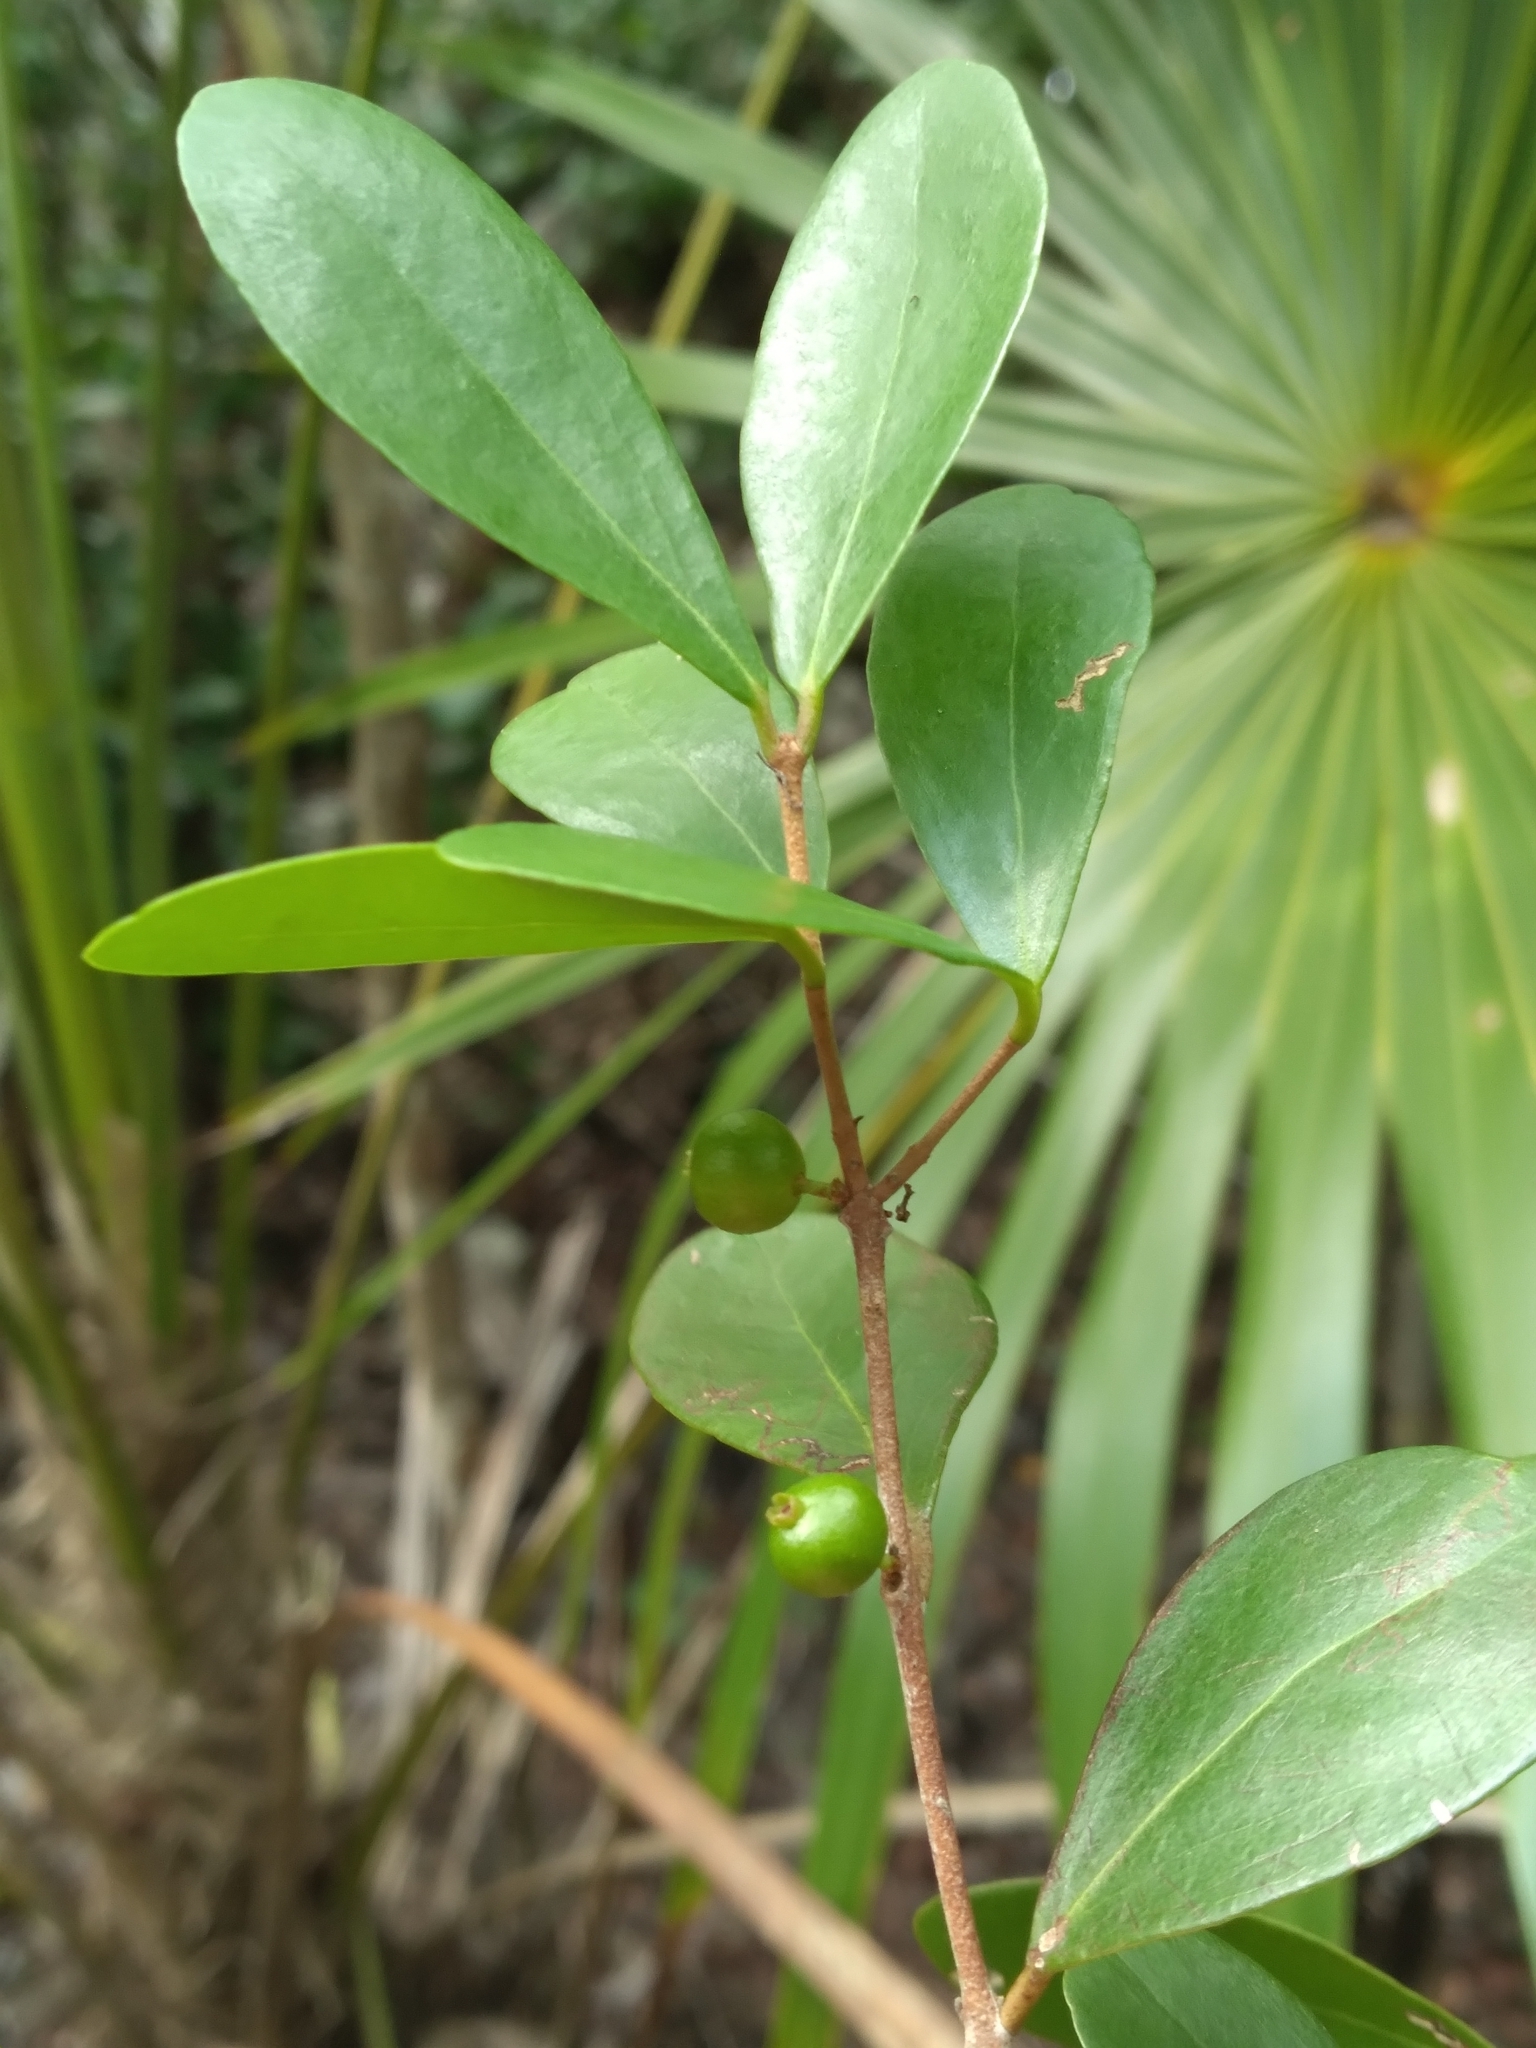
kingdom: Plantae
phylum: Tracheophyta
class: Magnoliopsida
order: Myrtales
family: Myrtaceae
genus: Eugenia
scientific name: Eugenia foetida
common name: White wattling
